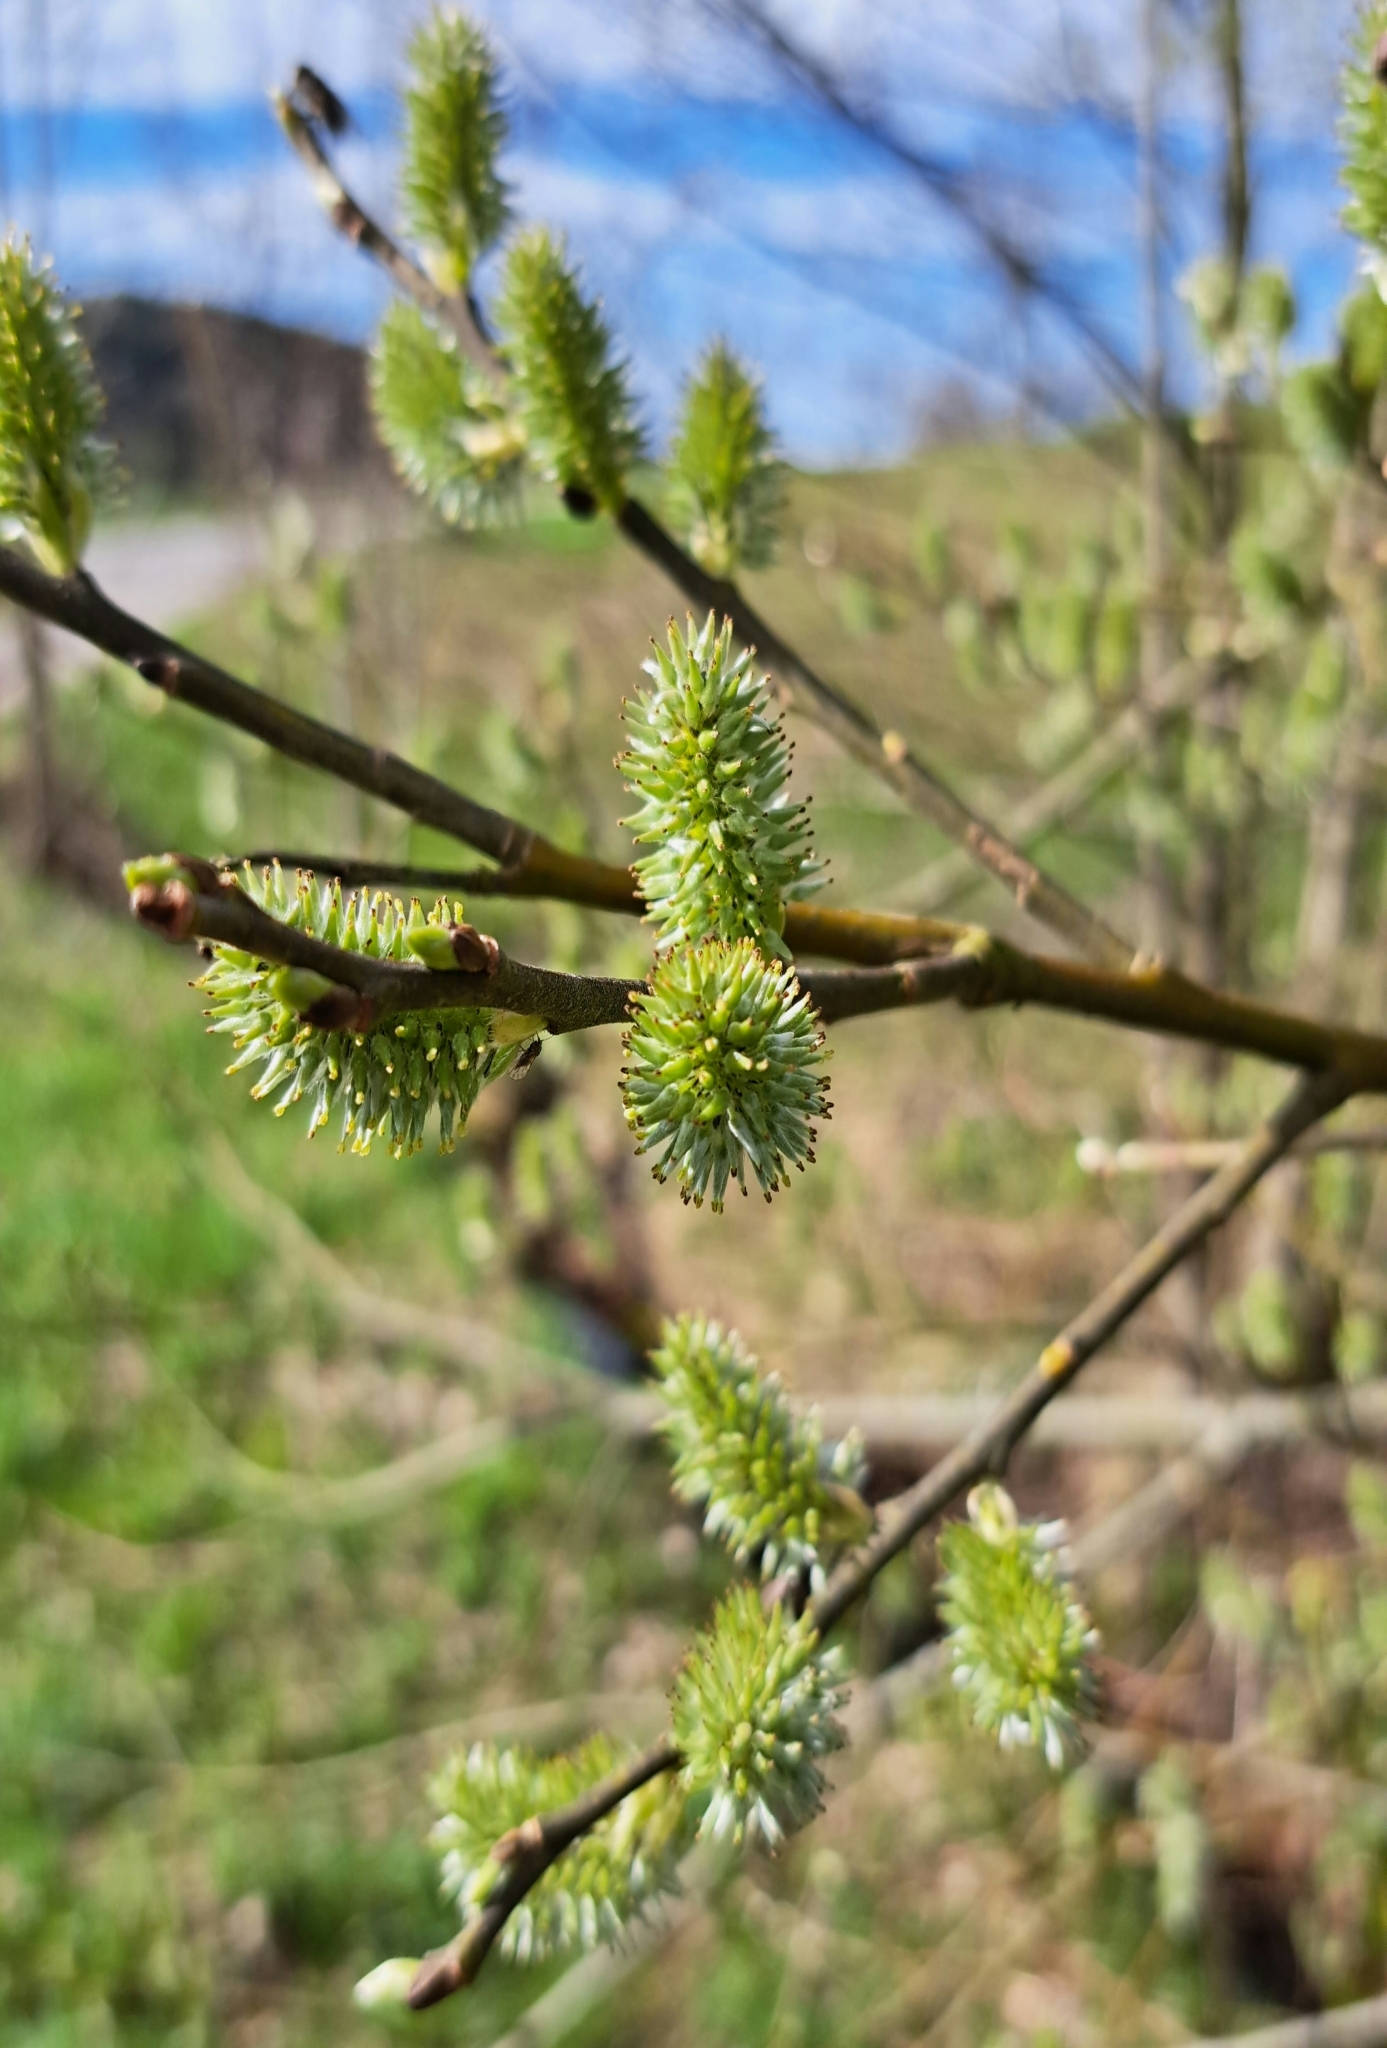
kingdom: Plantae
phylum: Tracheophyta
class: Magnoliopsida
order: Malpighiales
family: Salicaceae
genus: Salix
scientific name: Salix caprea
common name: Goat willow
